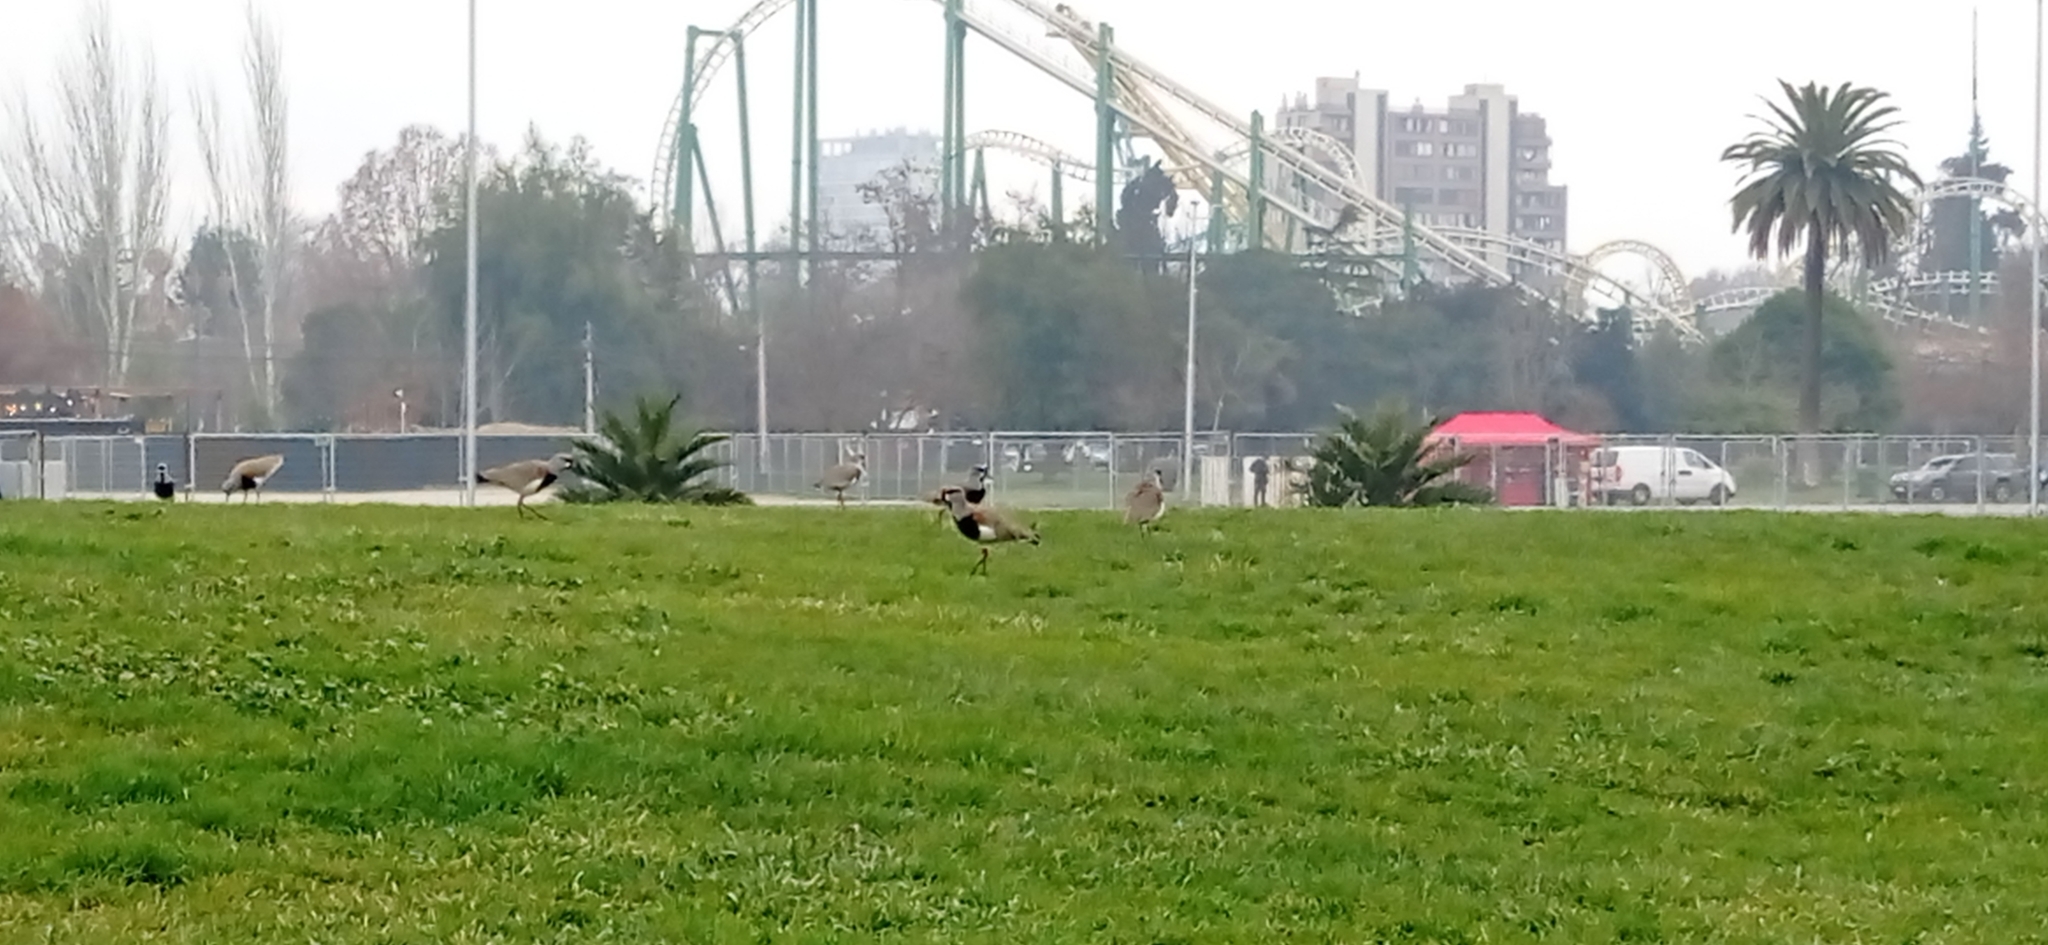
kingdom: Animalia
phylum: Chordata
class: Aves
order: Charadriiformes
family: Charadriidae
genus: Vanellus
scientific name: Vanellus chilensis
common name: Southern lapwing
